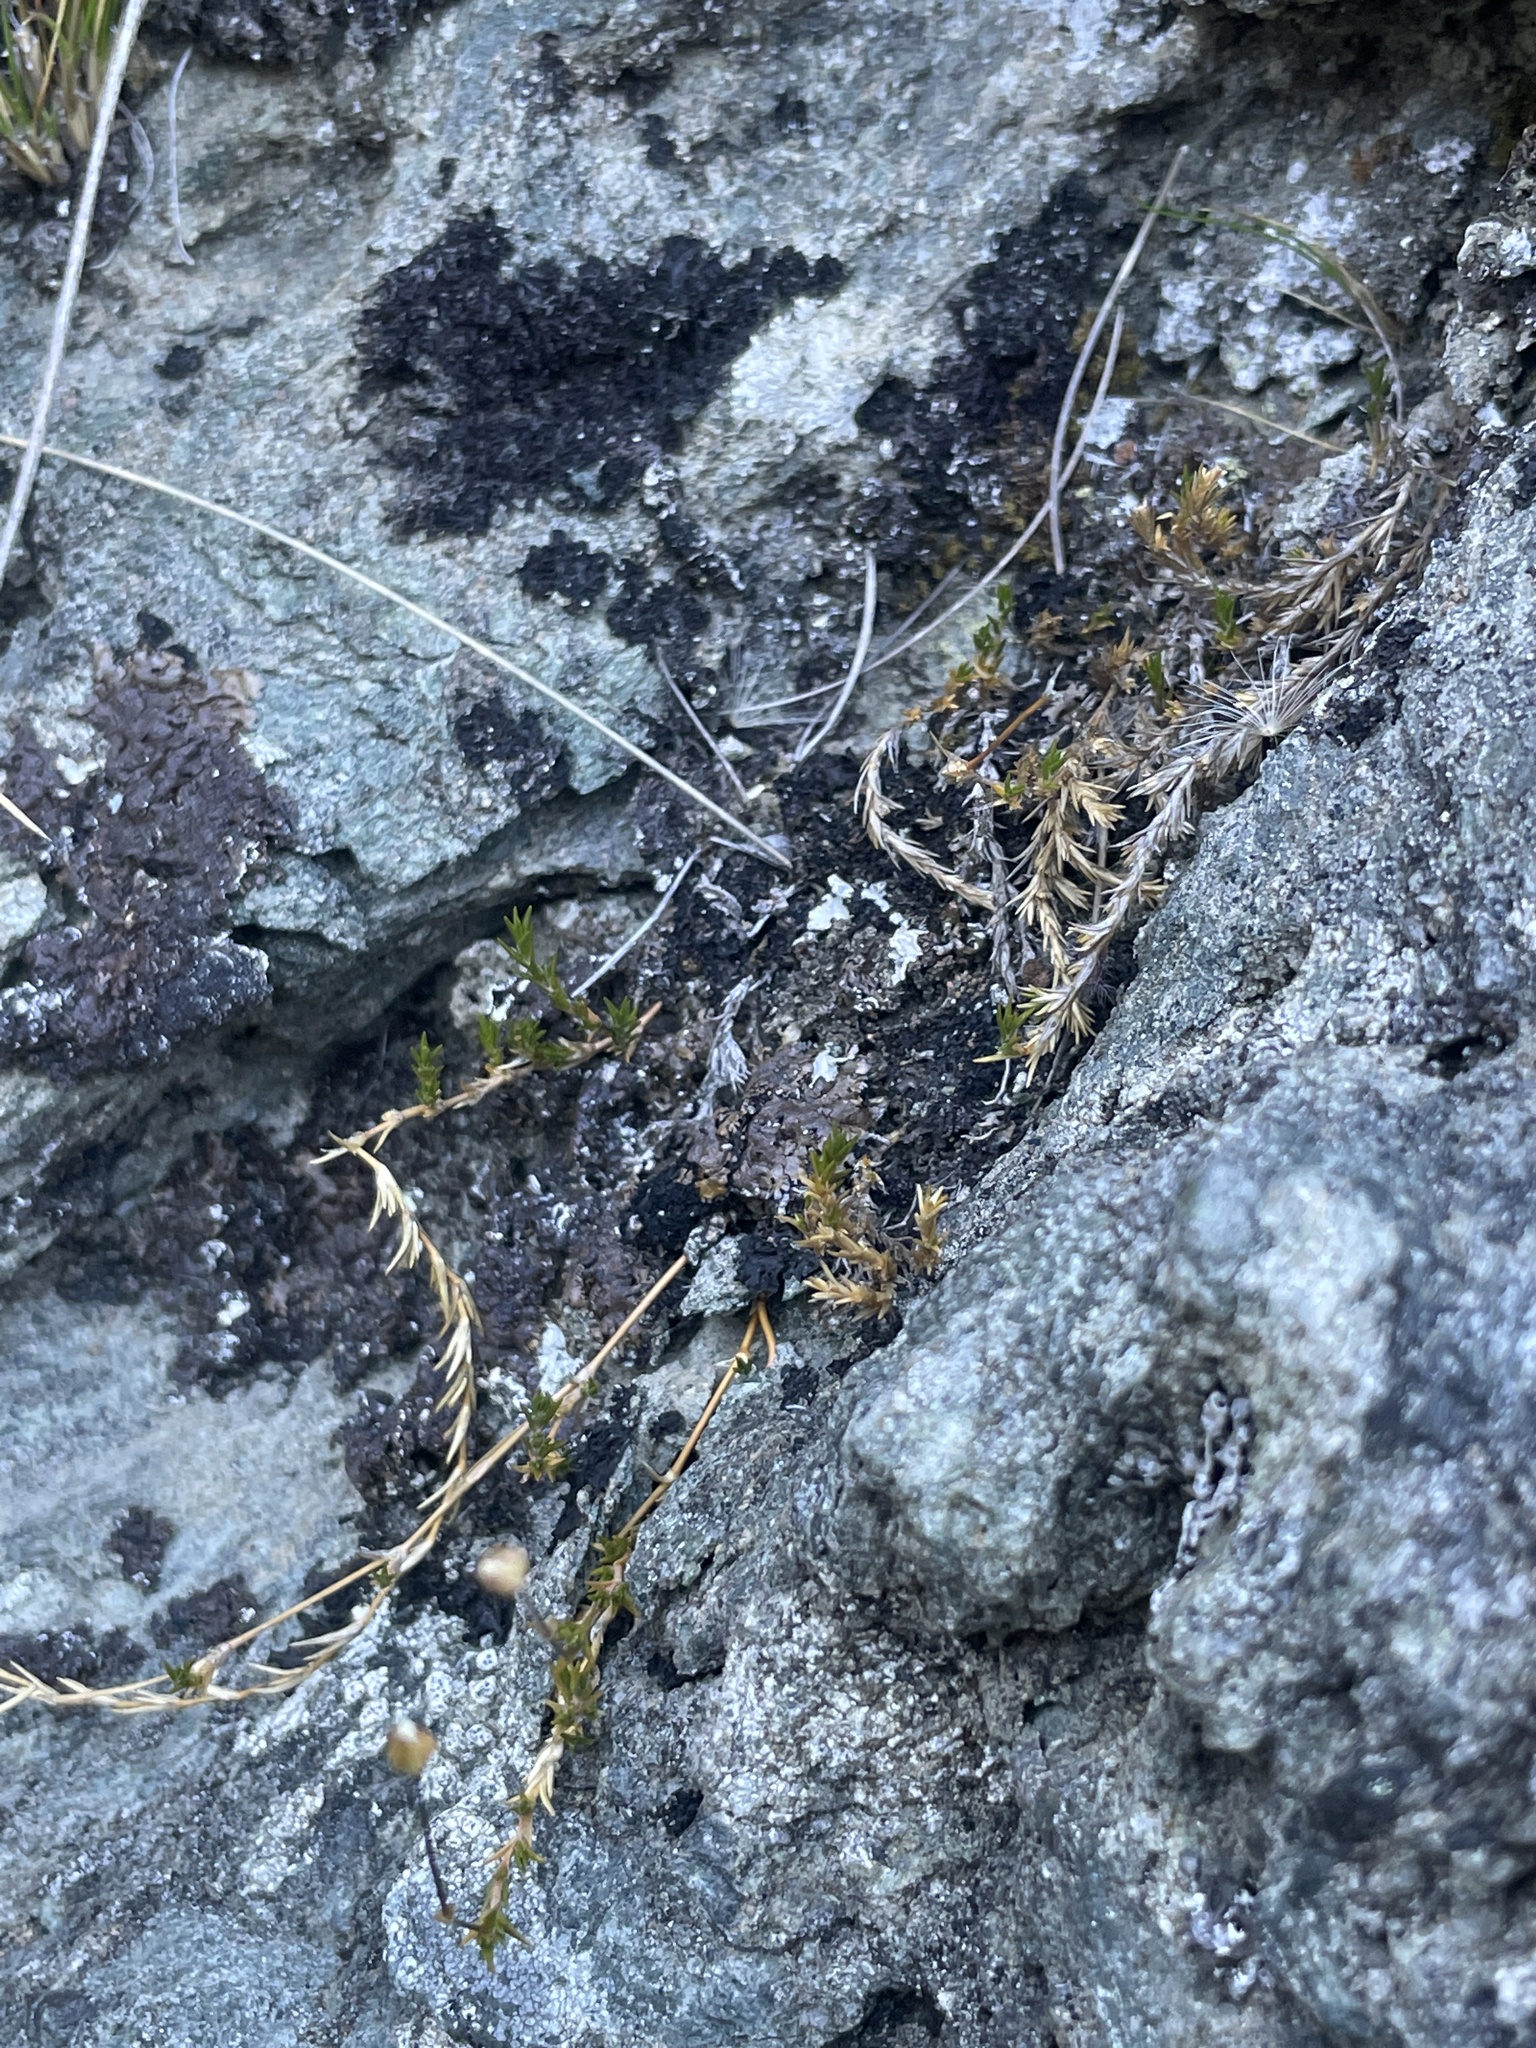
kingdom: Plantae
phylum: Tracheophyta
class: Magnoliopsida
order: Caryophyllales
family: Caryophyllaceae
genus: Stellaria
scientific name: Stellaria gracilenta
